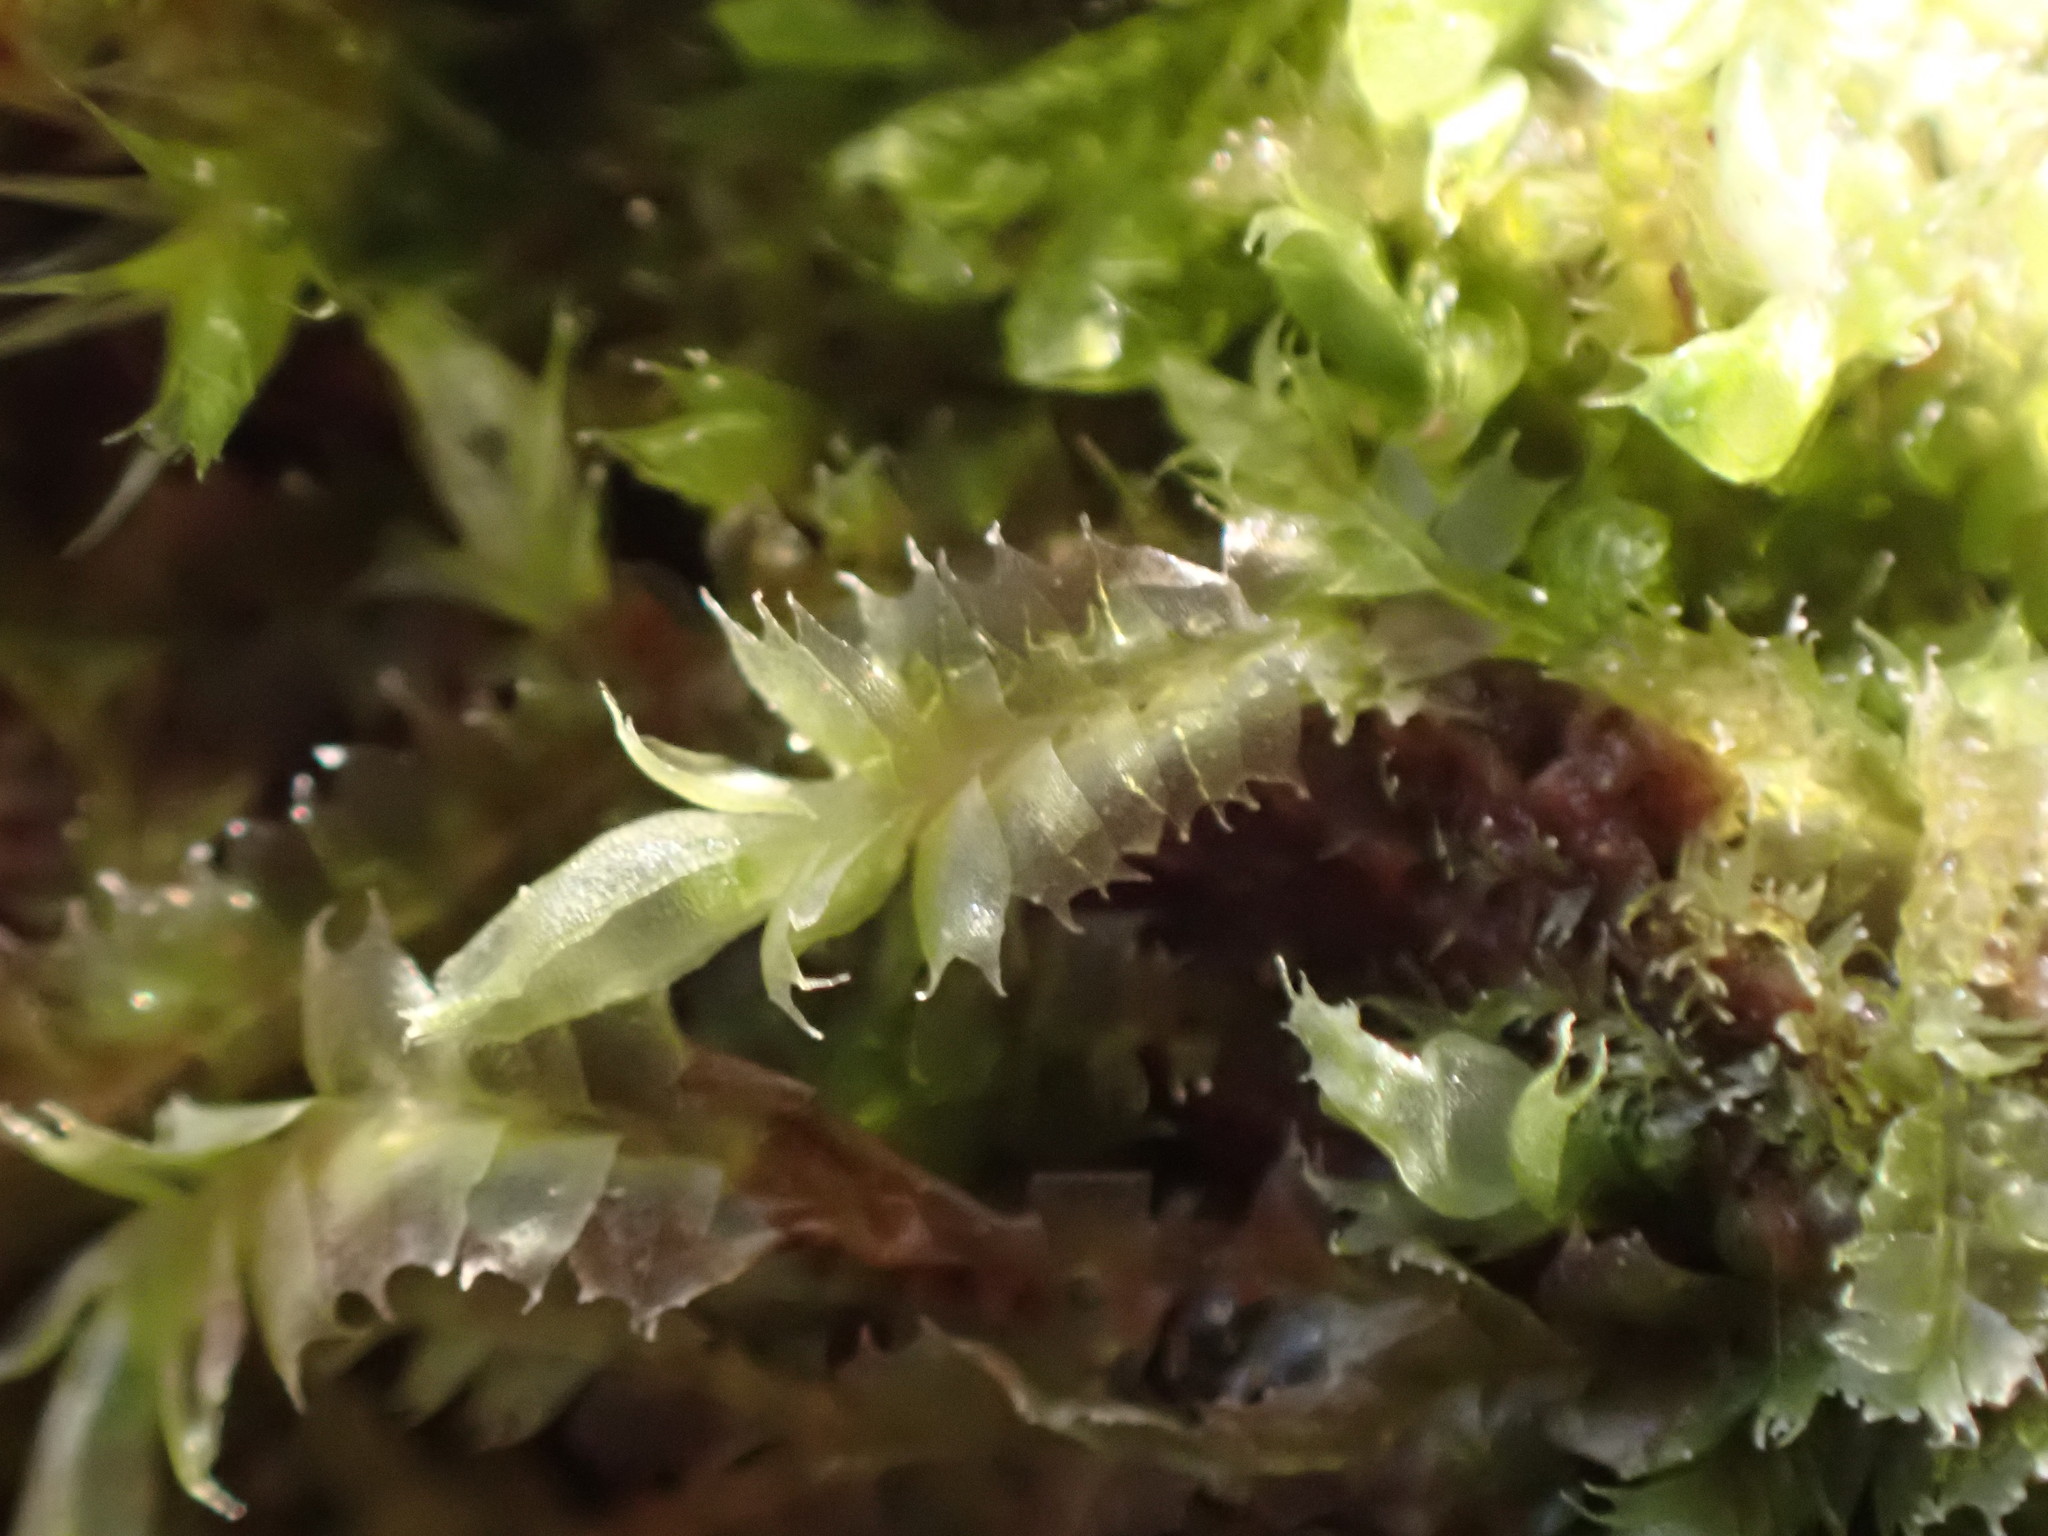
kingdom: Plantae
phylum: Marchantiophyta
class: Jungermanniopsida
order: Jungermanniales
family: Lophocoleaceae
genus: Lophocolea
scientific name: Lophocolea bidentata
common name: Bifid crestwort
